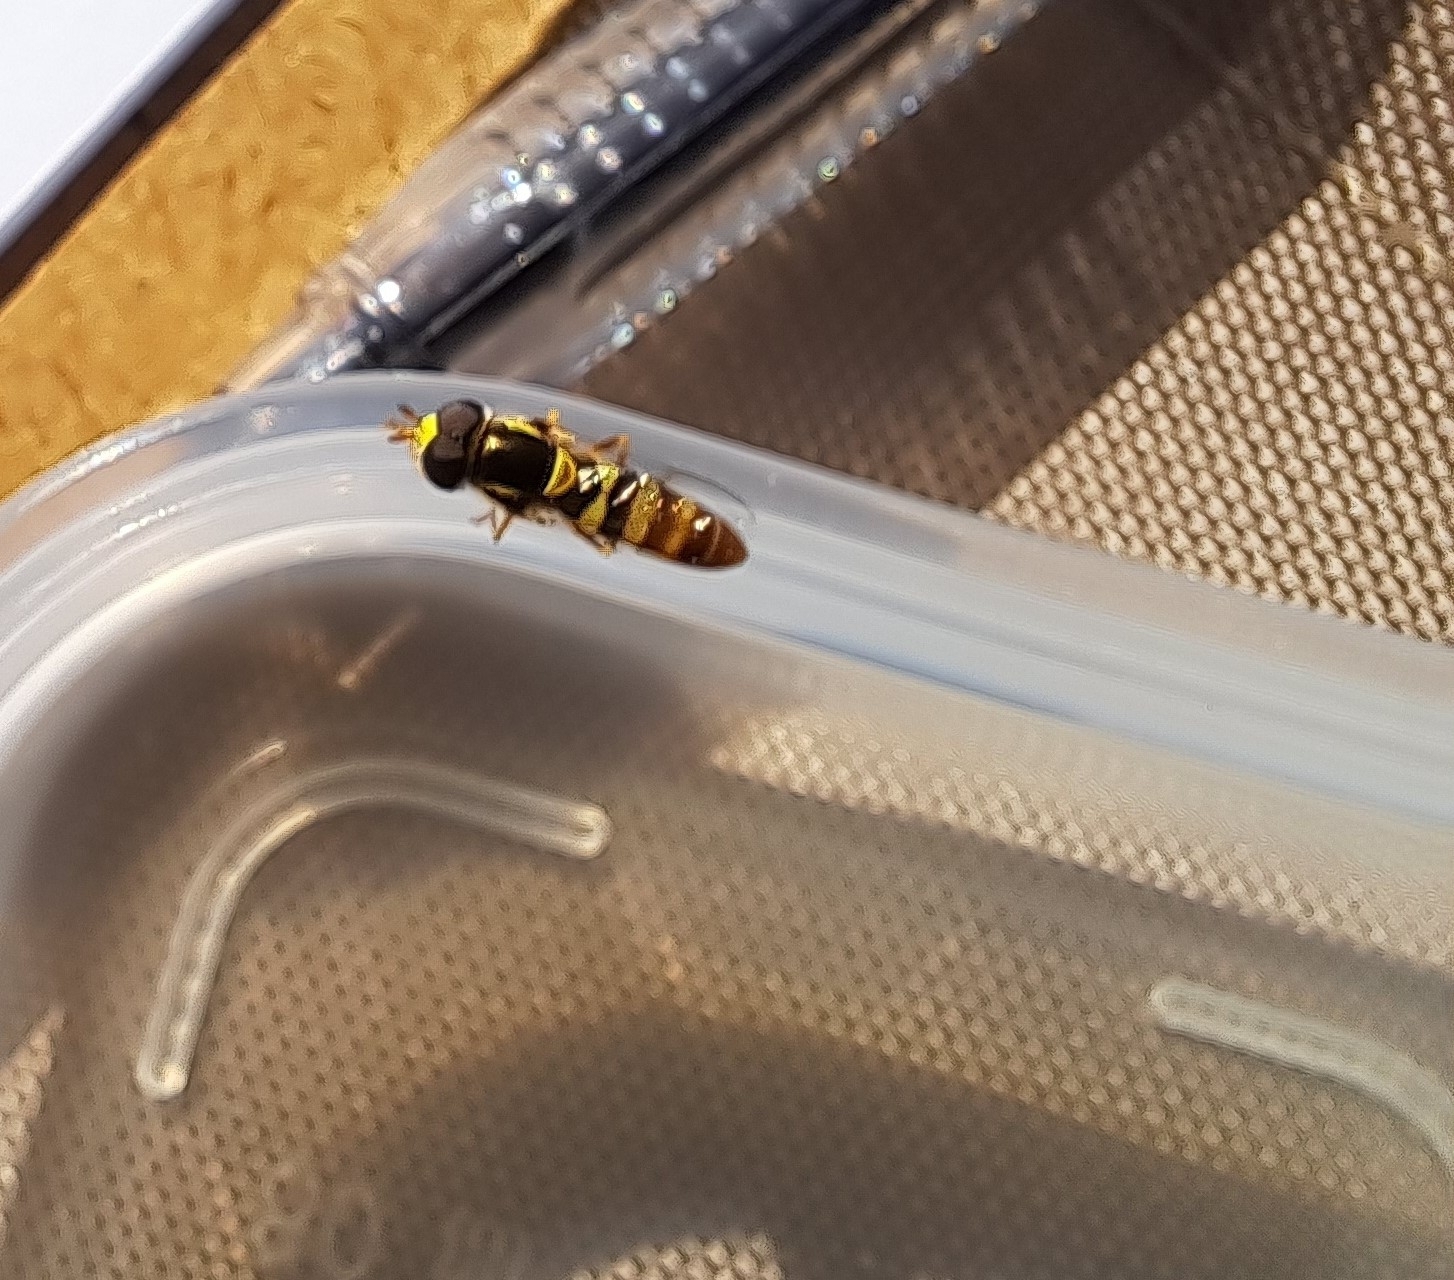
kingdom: Animalia
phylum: Arthropoda
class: Insecta
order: Diptera
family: Syrphidae
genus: Ischiodon
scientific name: Ischiodon aegyptius
